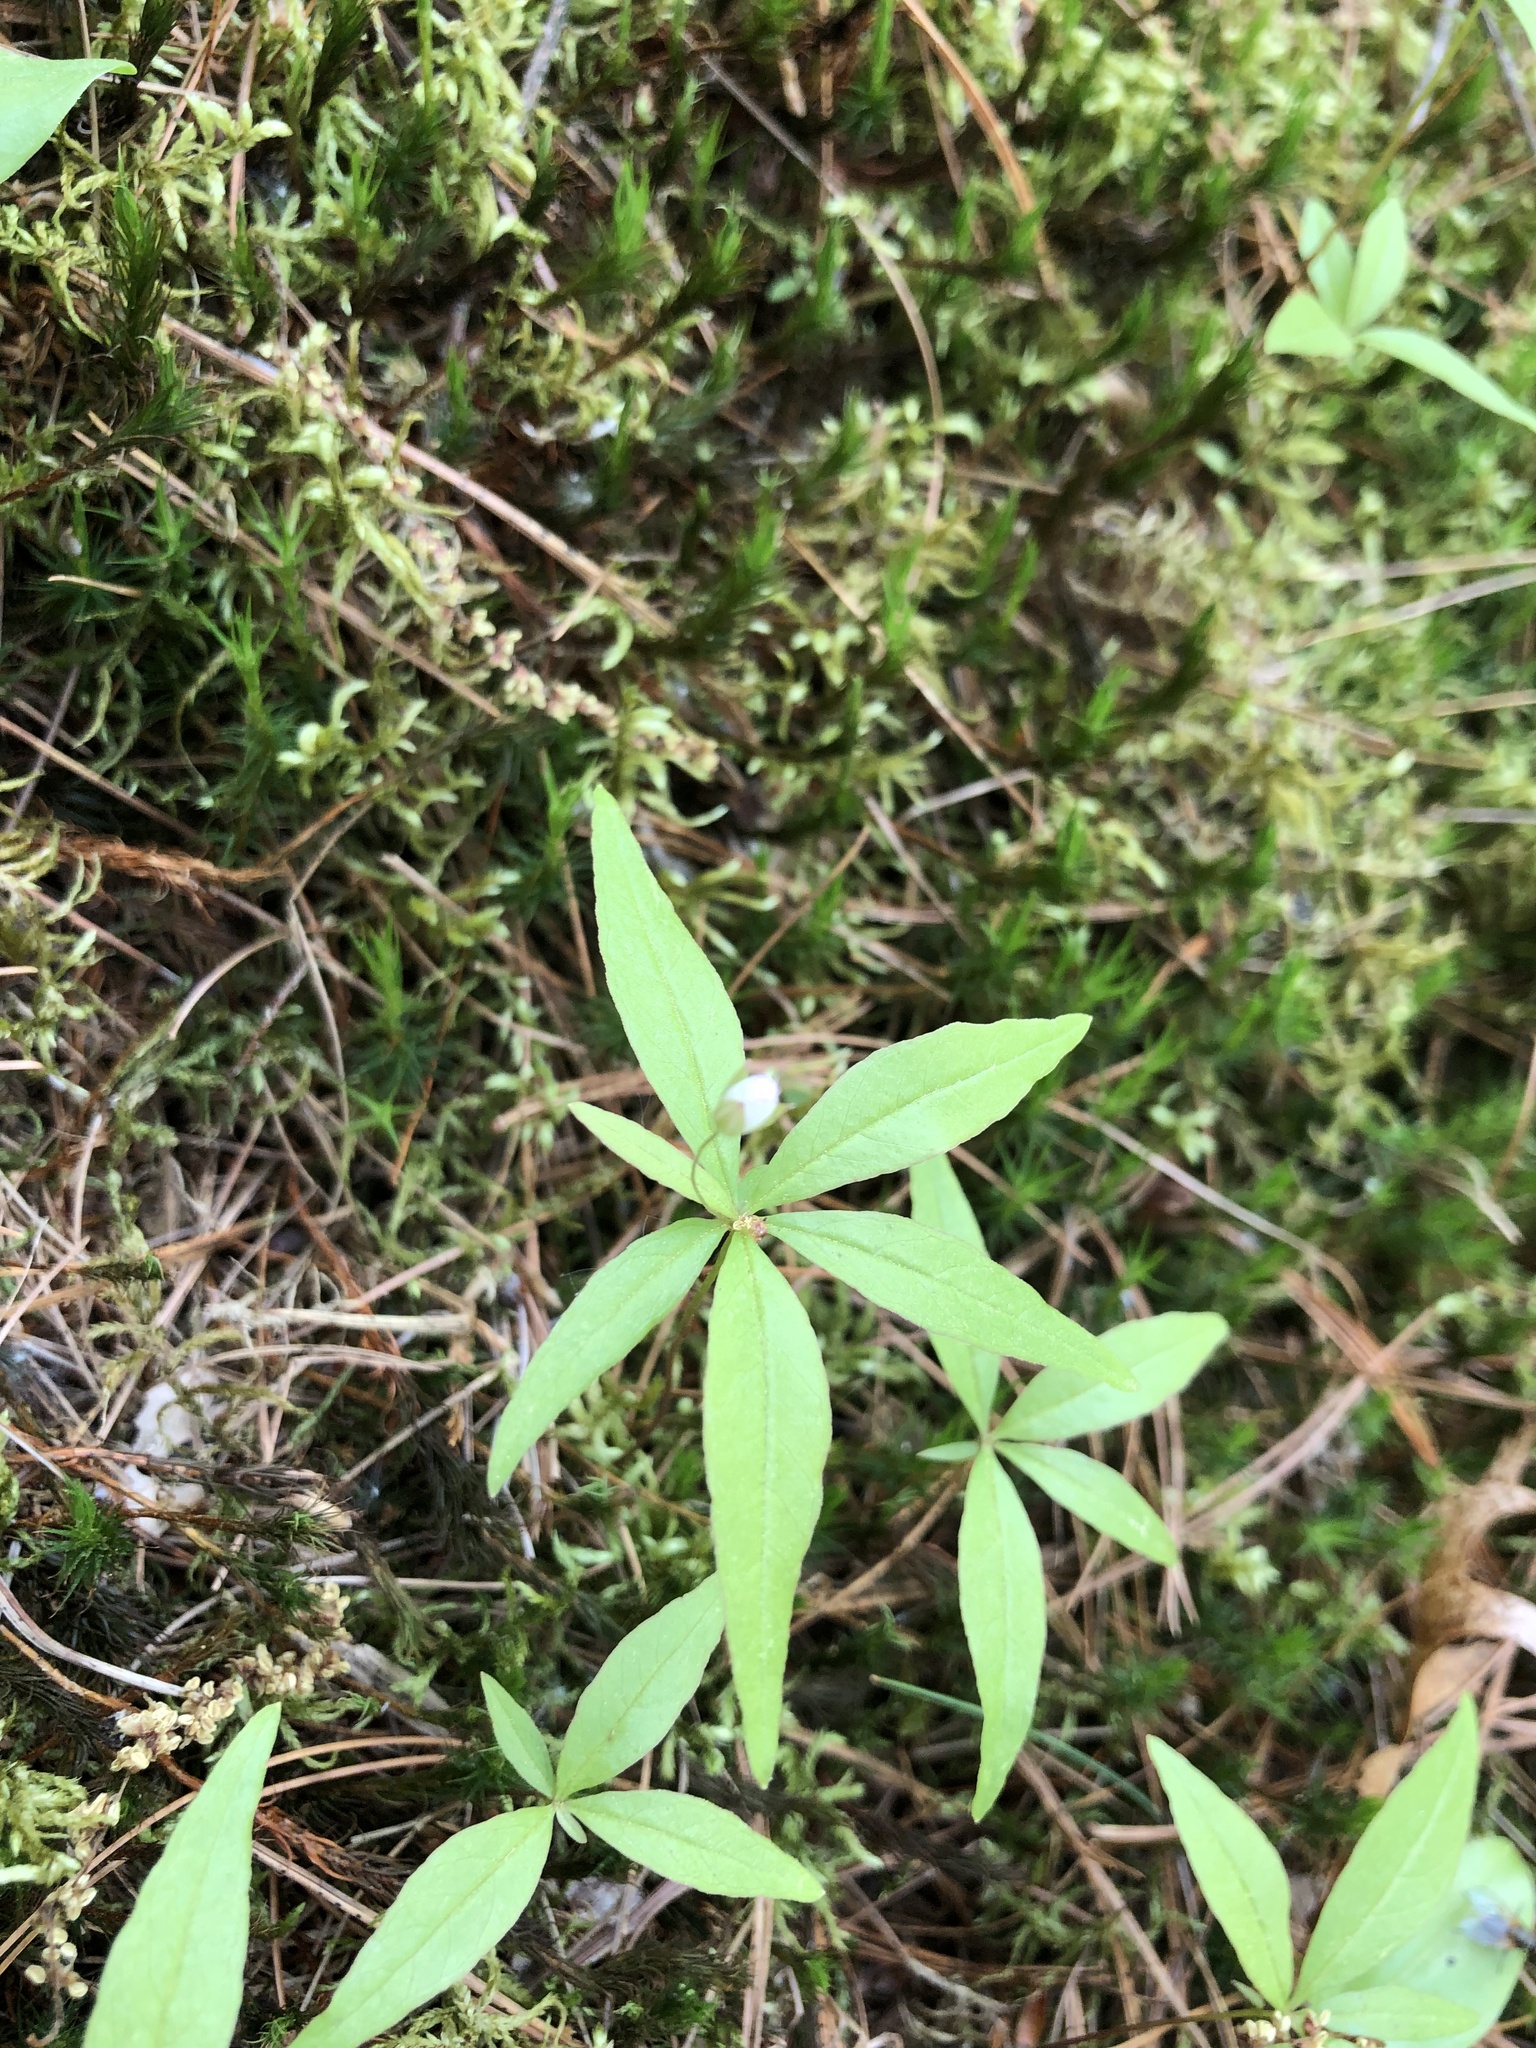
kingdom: Plantae
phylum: Tracheophyta
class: Magnoliopsida
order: Ericales
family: Primulaceae
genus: Lysimachia
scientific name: Lysimachia borealis
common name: American starflower
